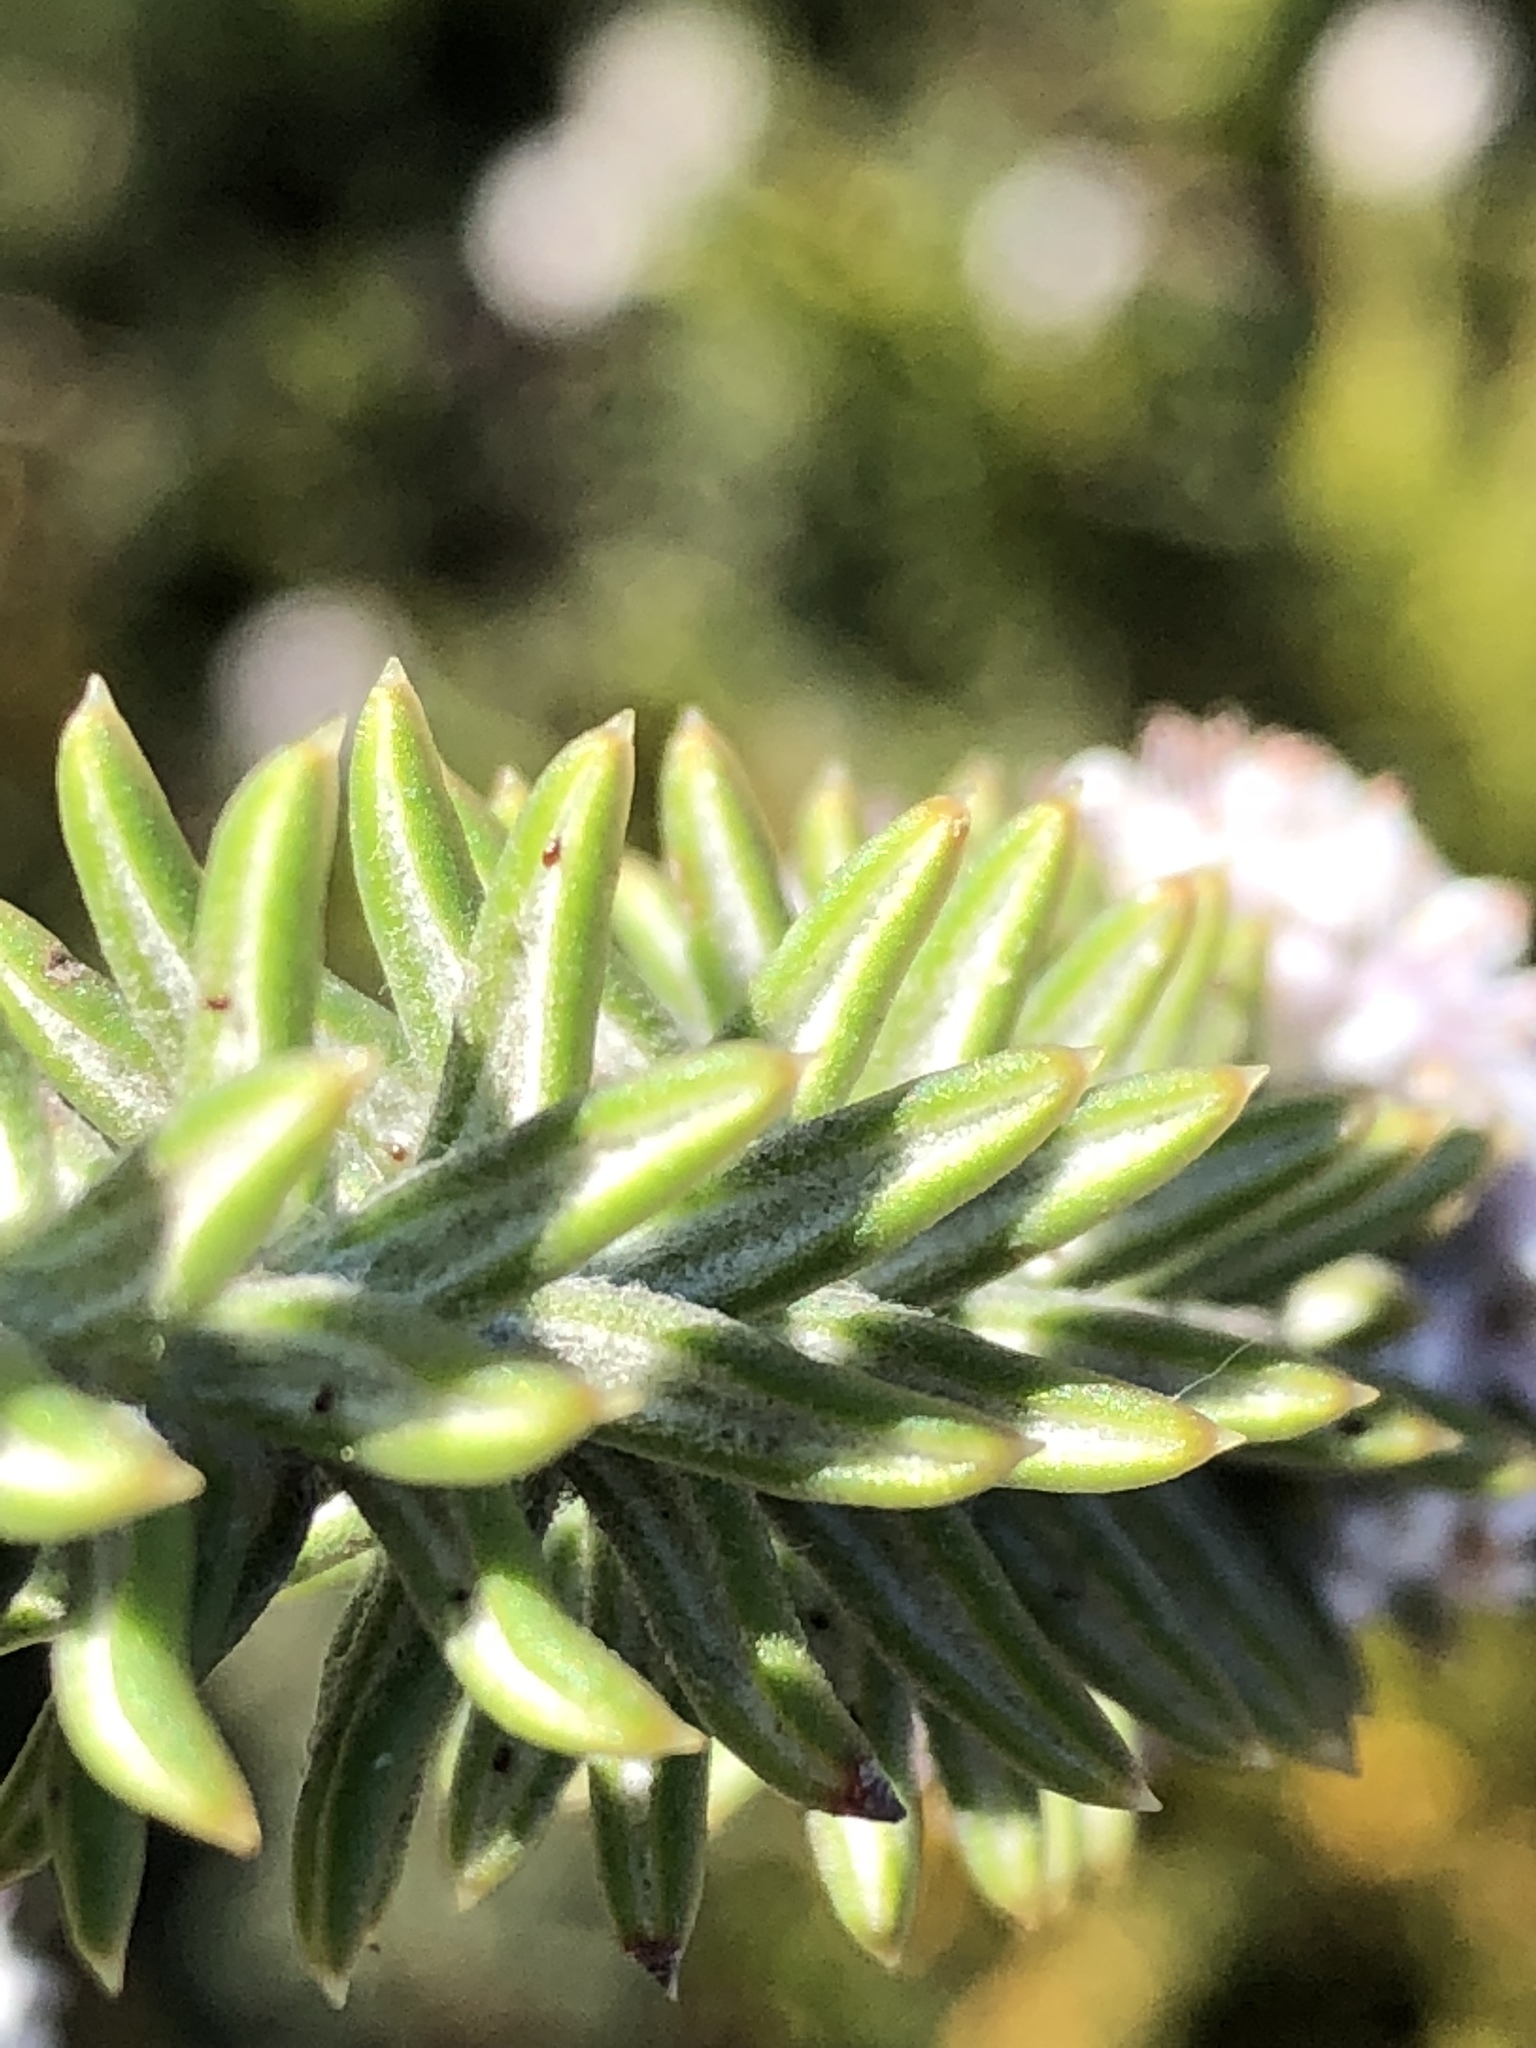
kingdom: Plantae
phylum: Tracheophyta
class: Magnoliopsida
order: Lamiales
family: Stilbaceae
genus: Kogelbergia
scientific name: Kogelbergia verticillata
